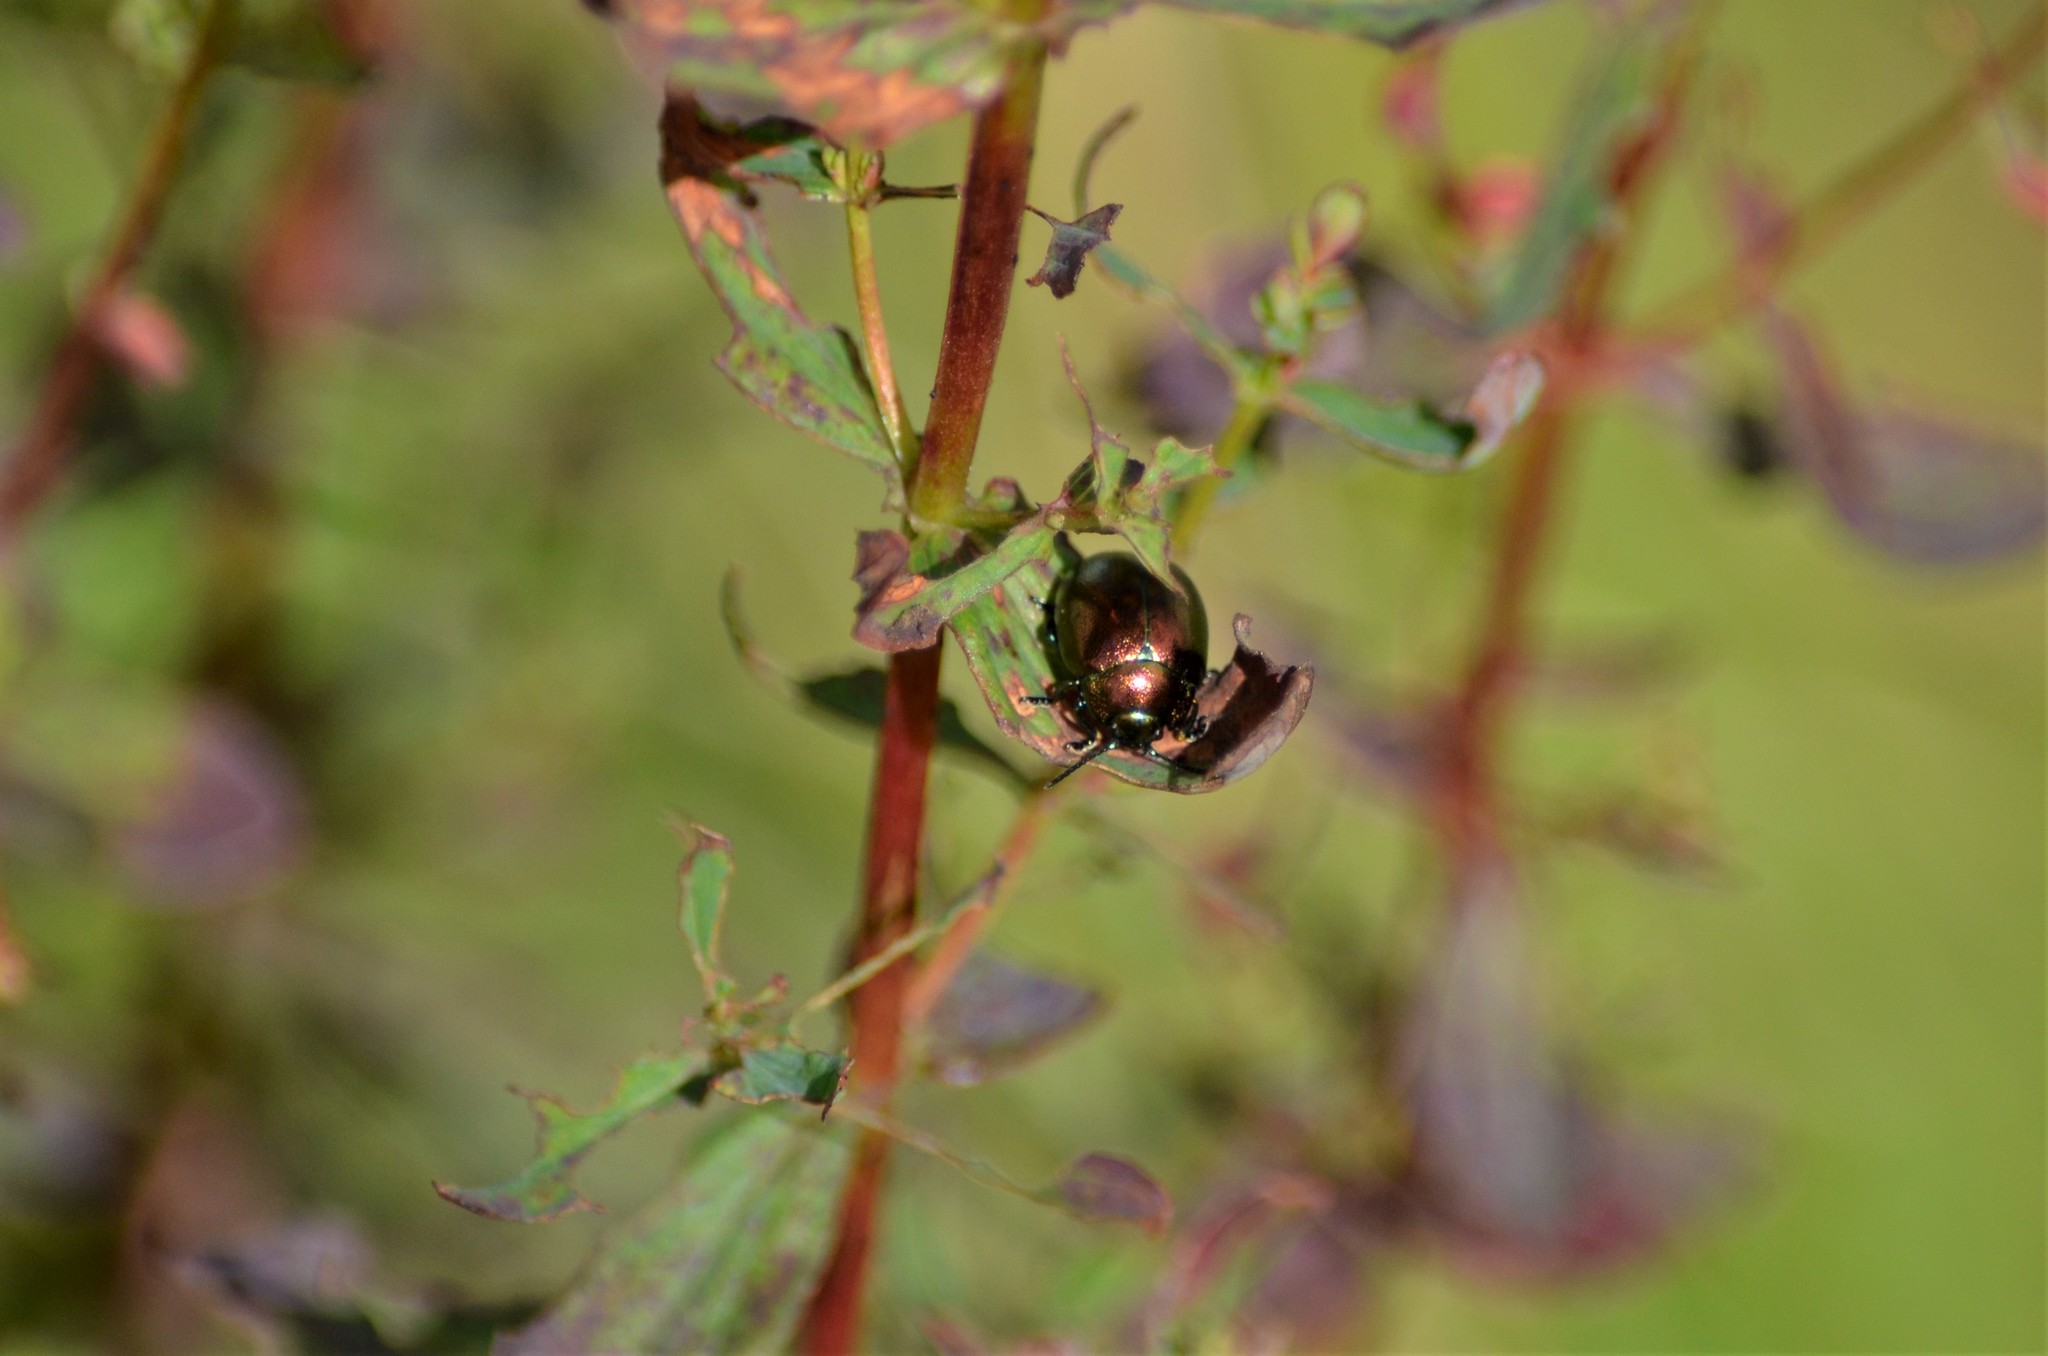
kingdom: Animalia
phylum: Arthropoda
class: Insecta
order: Coleoptera
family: Chrysomelidae
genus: Chrysolina
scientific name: Chrysolina varians
